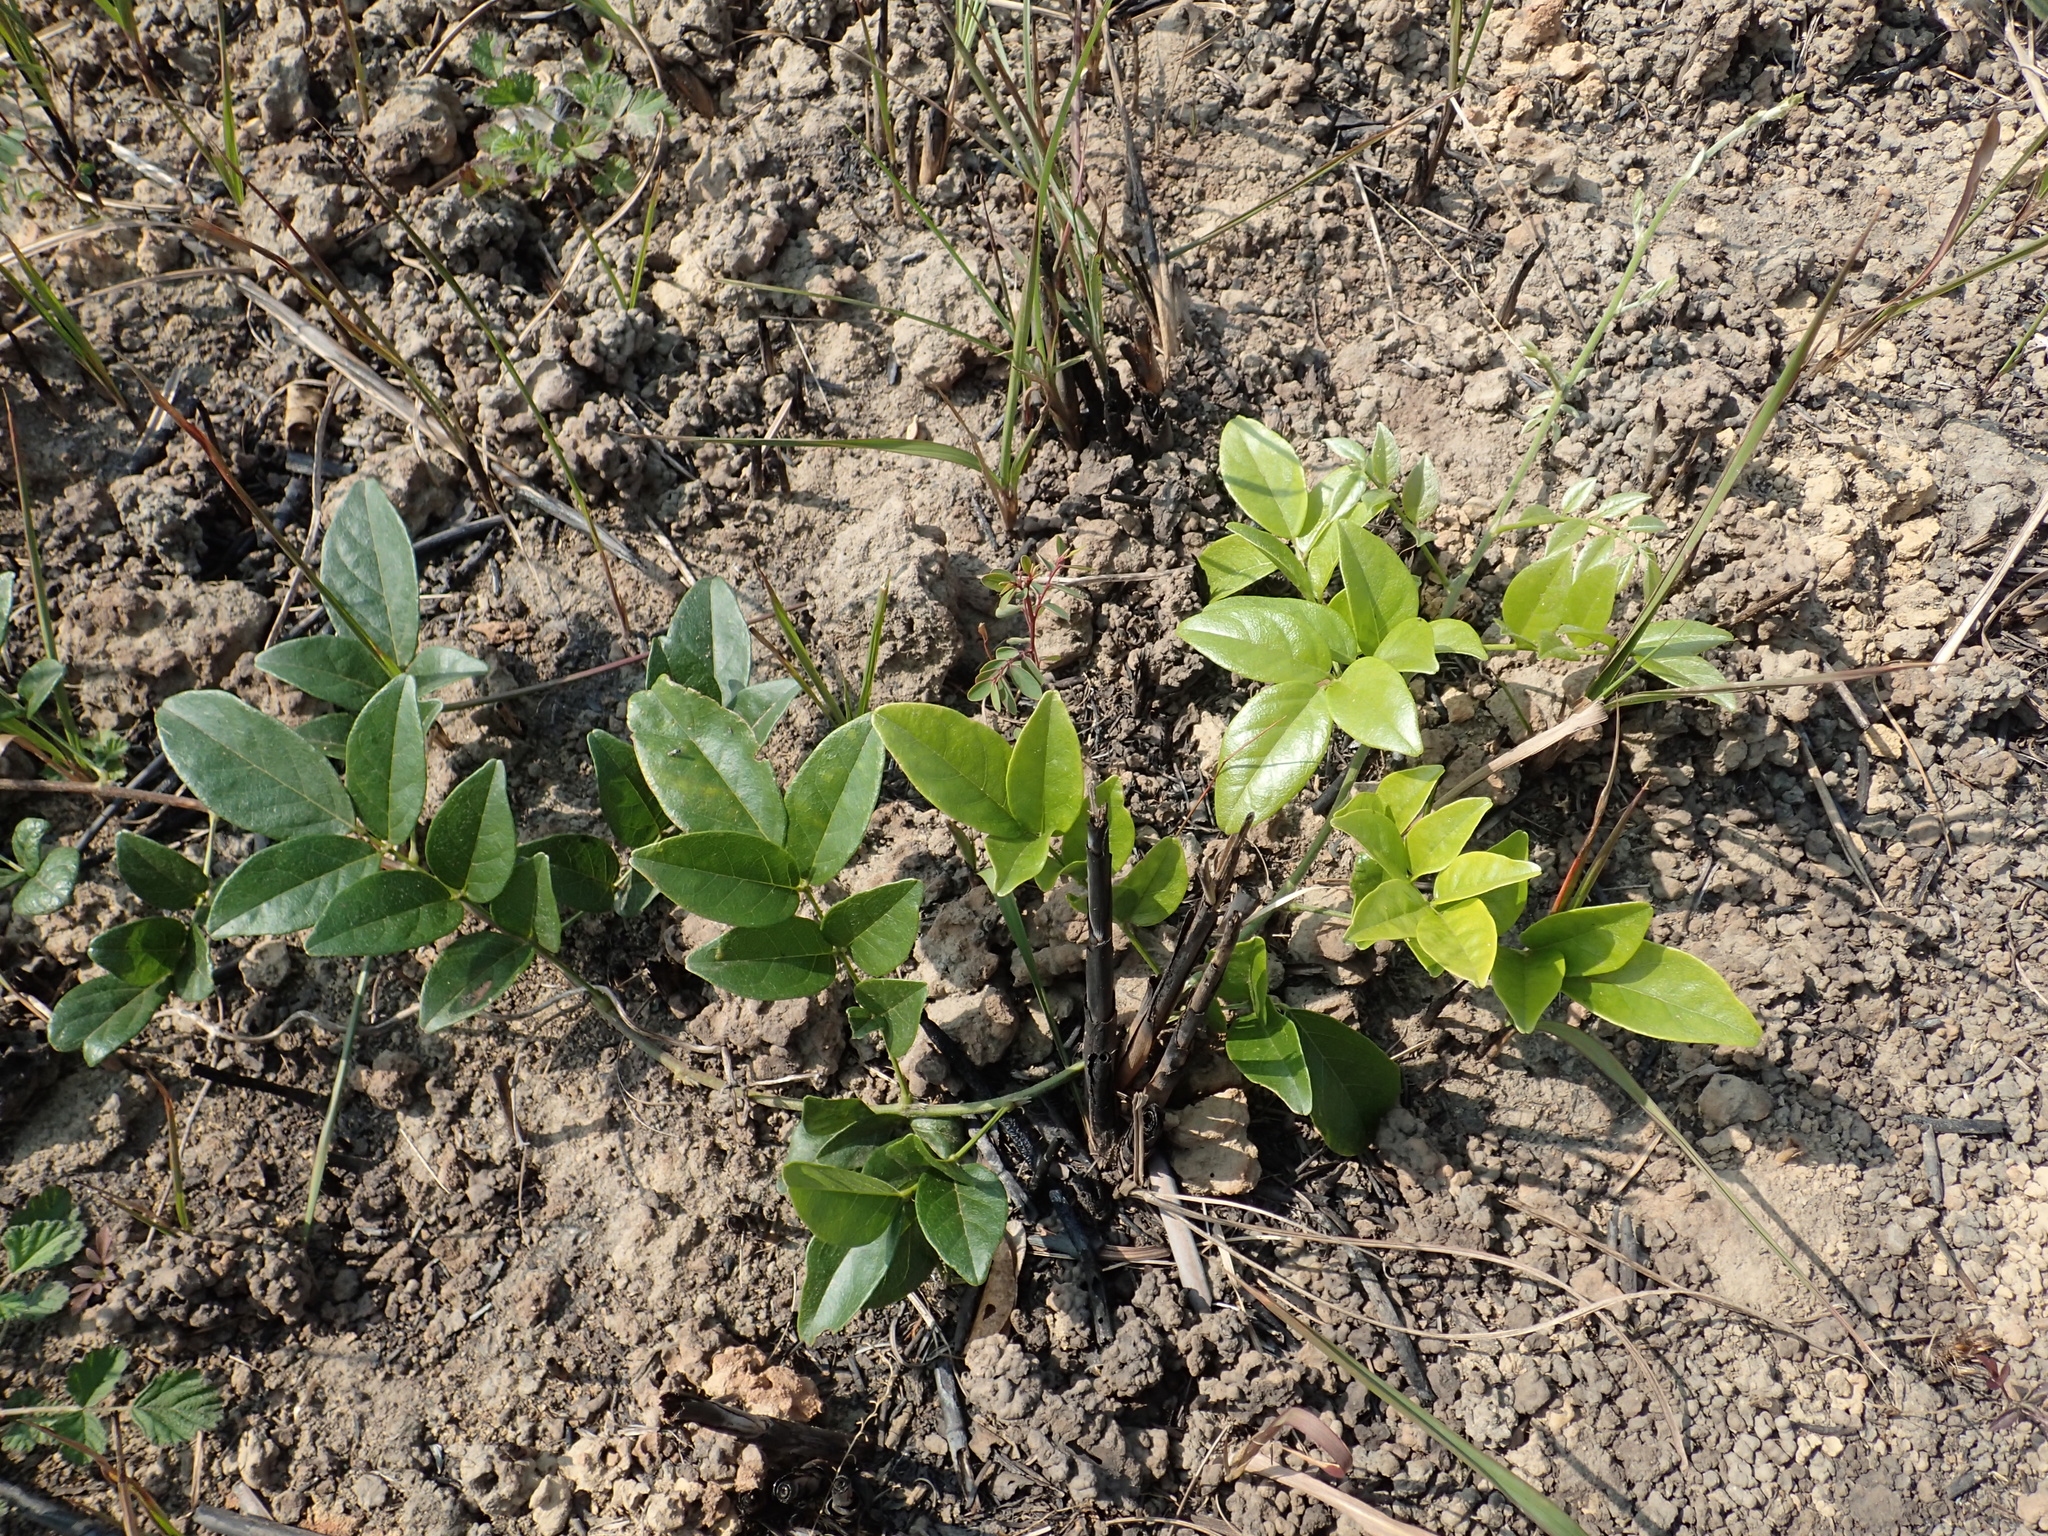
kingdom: Plantae
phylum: Tracheophyta
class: Magnoliopsida
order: Fabales
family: Fabaceae
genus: Wisteriopsis
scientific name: Wisteriopsis reticulata
